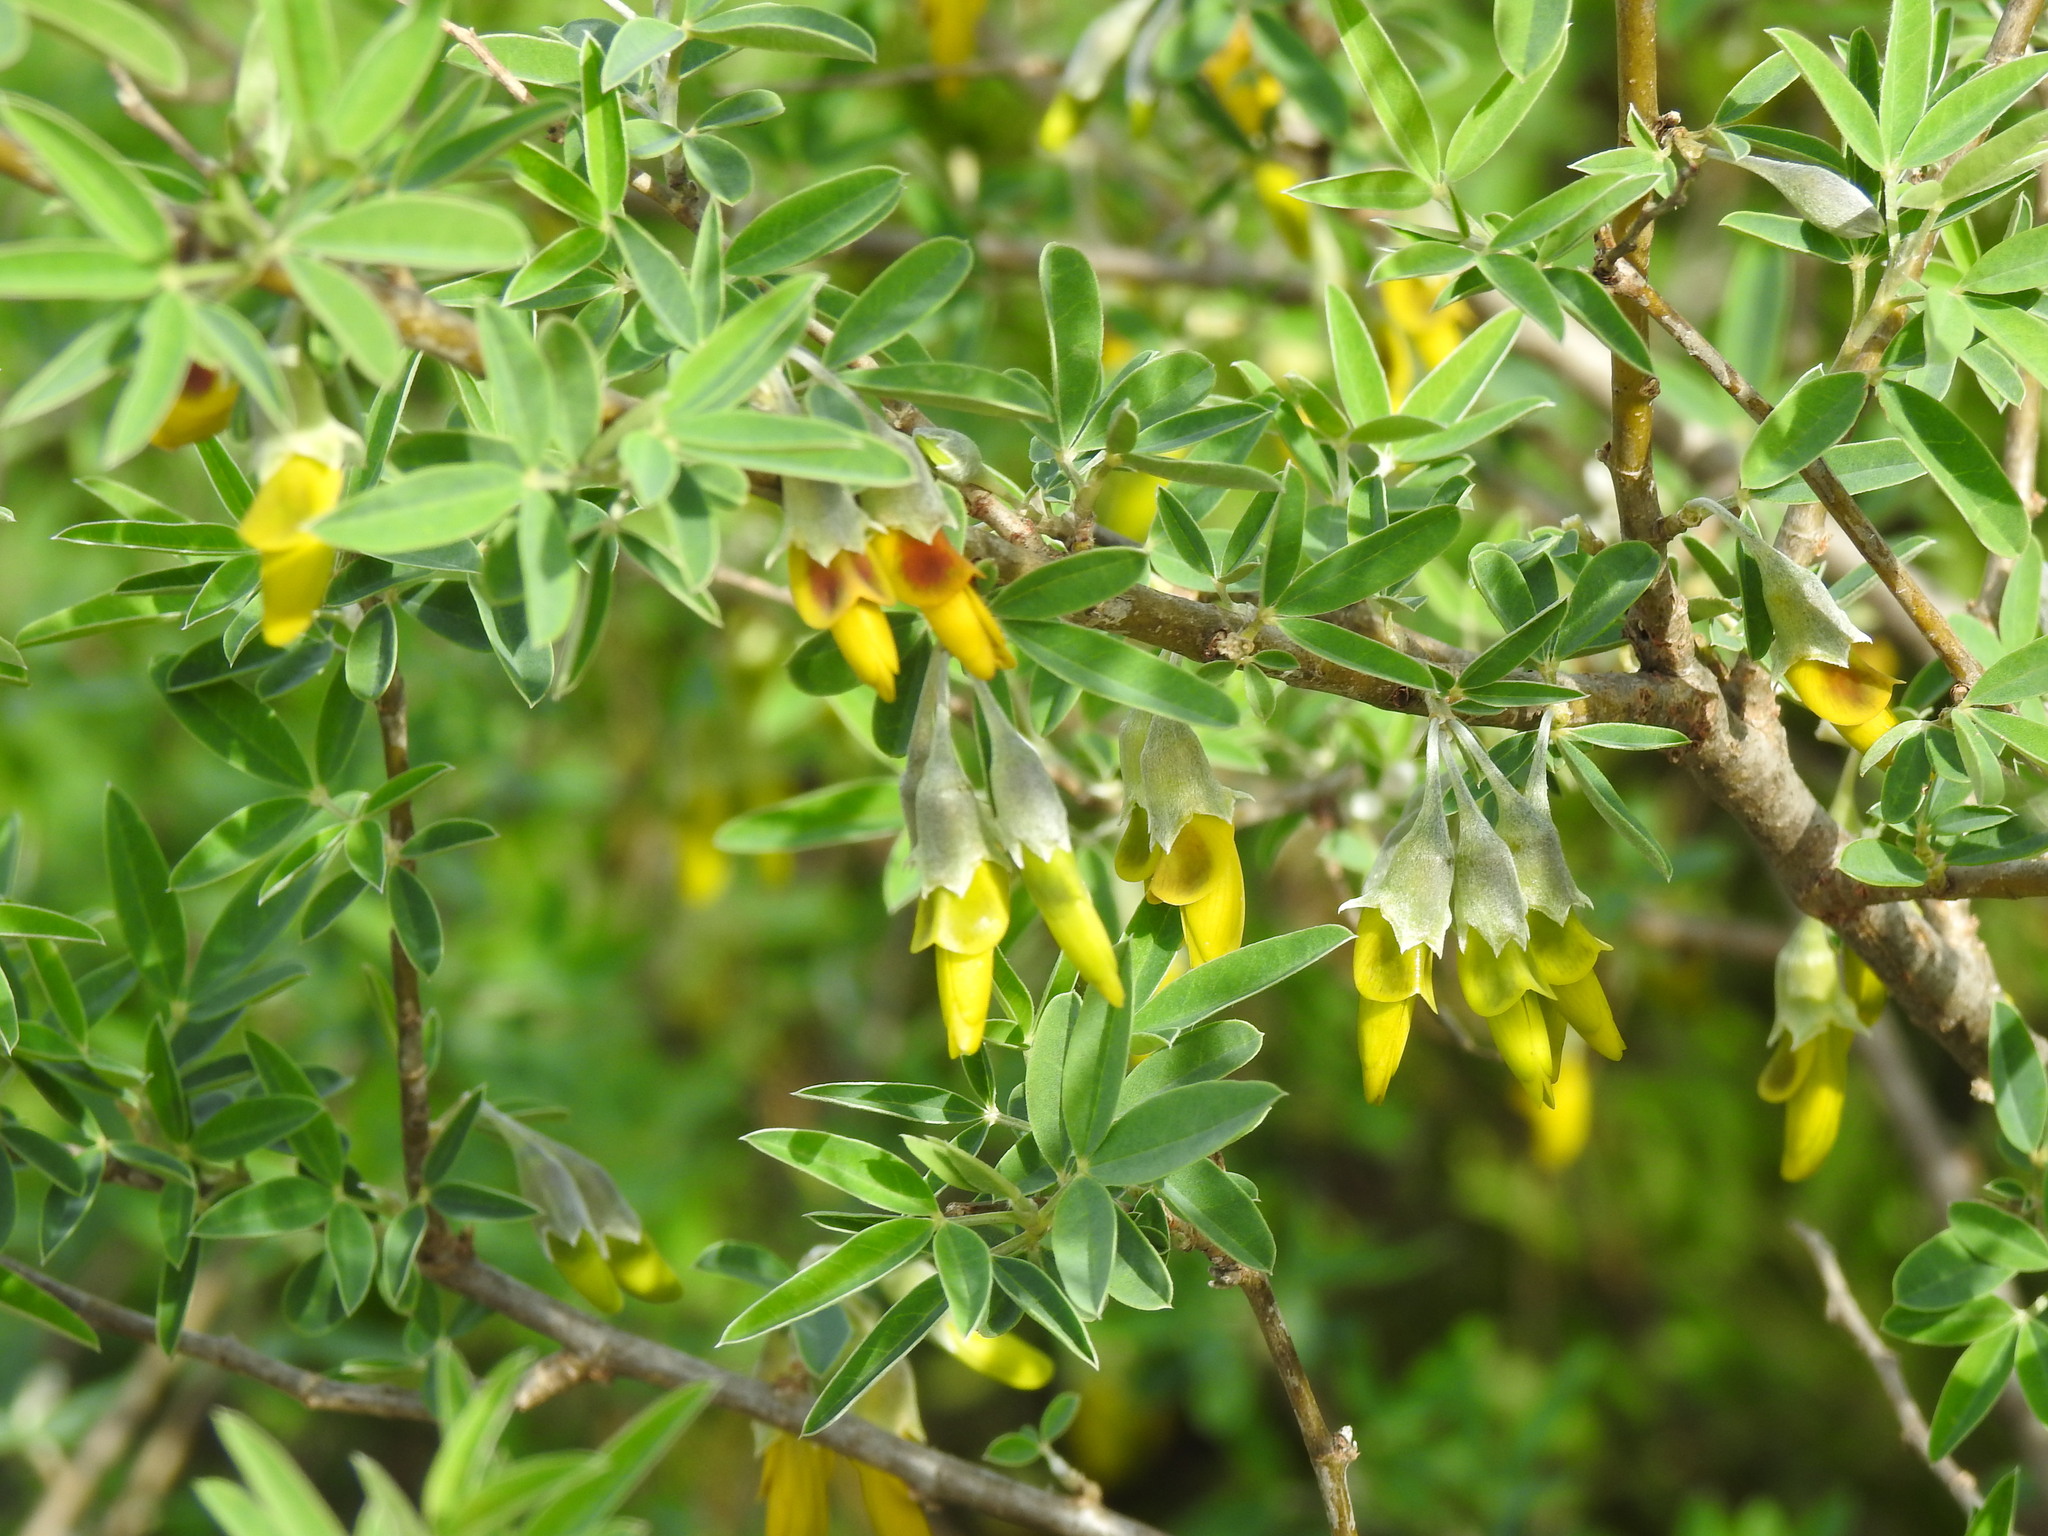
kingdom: Plantae
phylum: Tracheophyta
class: Magnoliopsida
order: Fabales
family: Fabaceae
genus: Anagyris
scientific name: Anagyris foetida
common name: Stinking bean trefoil
